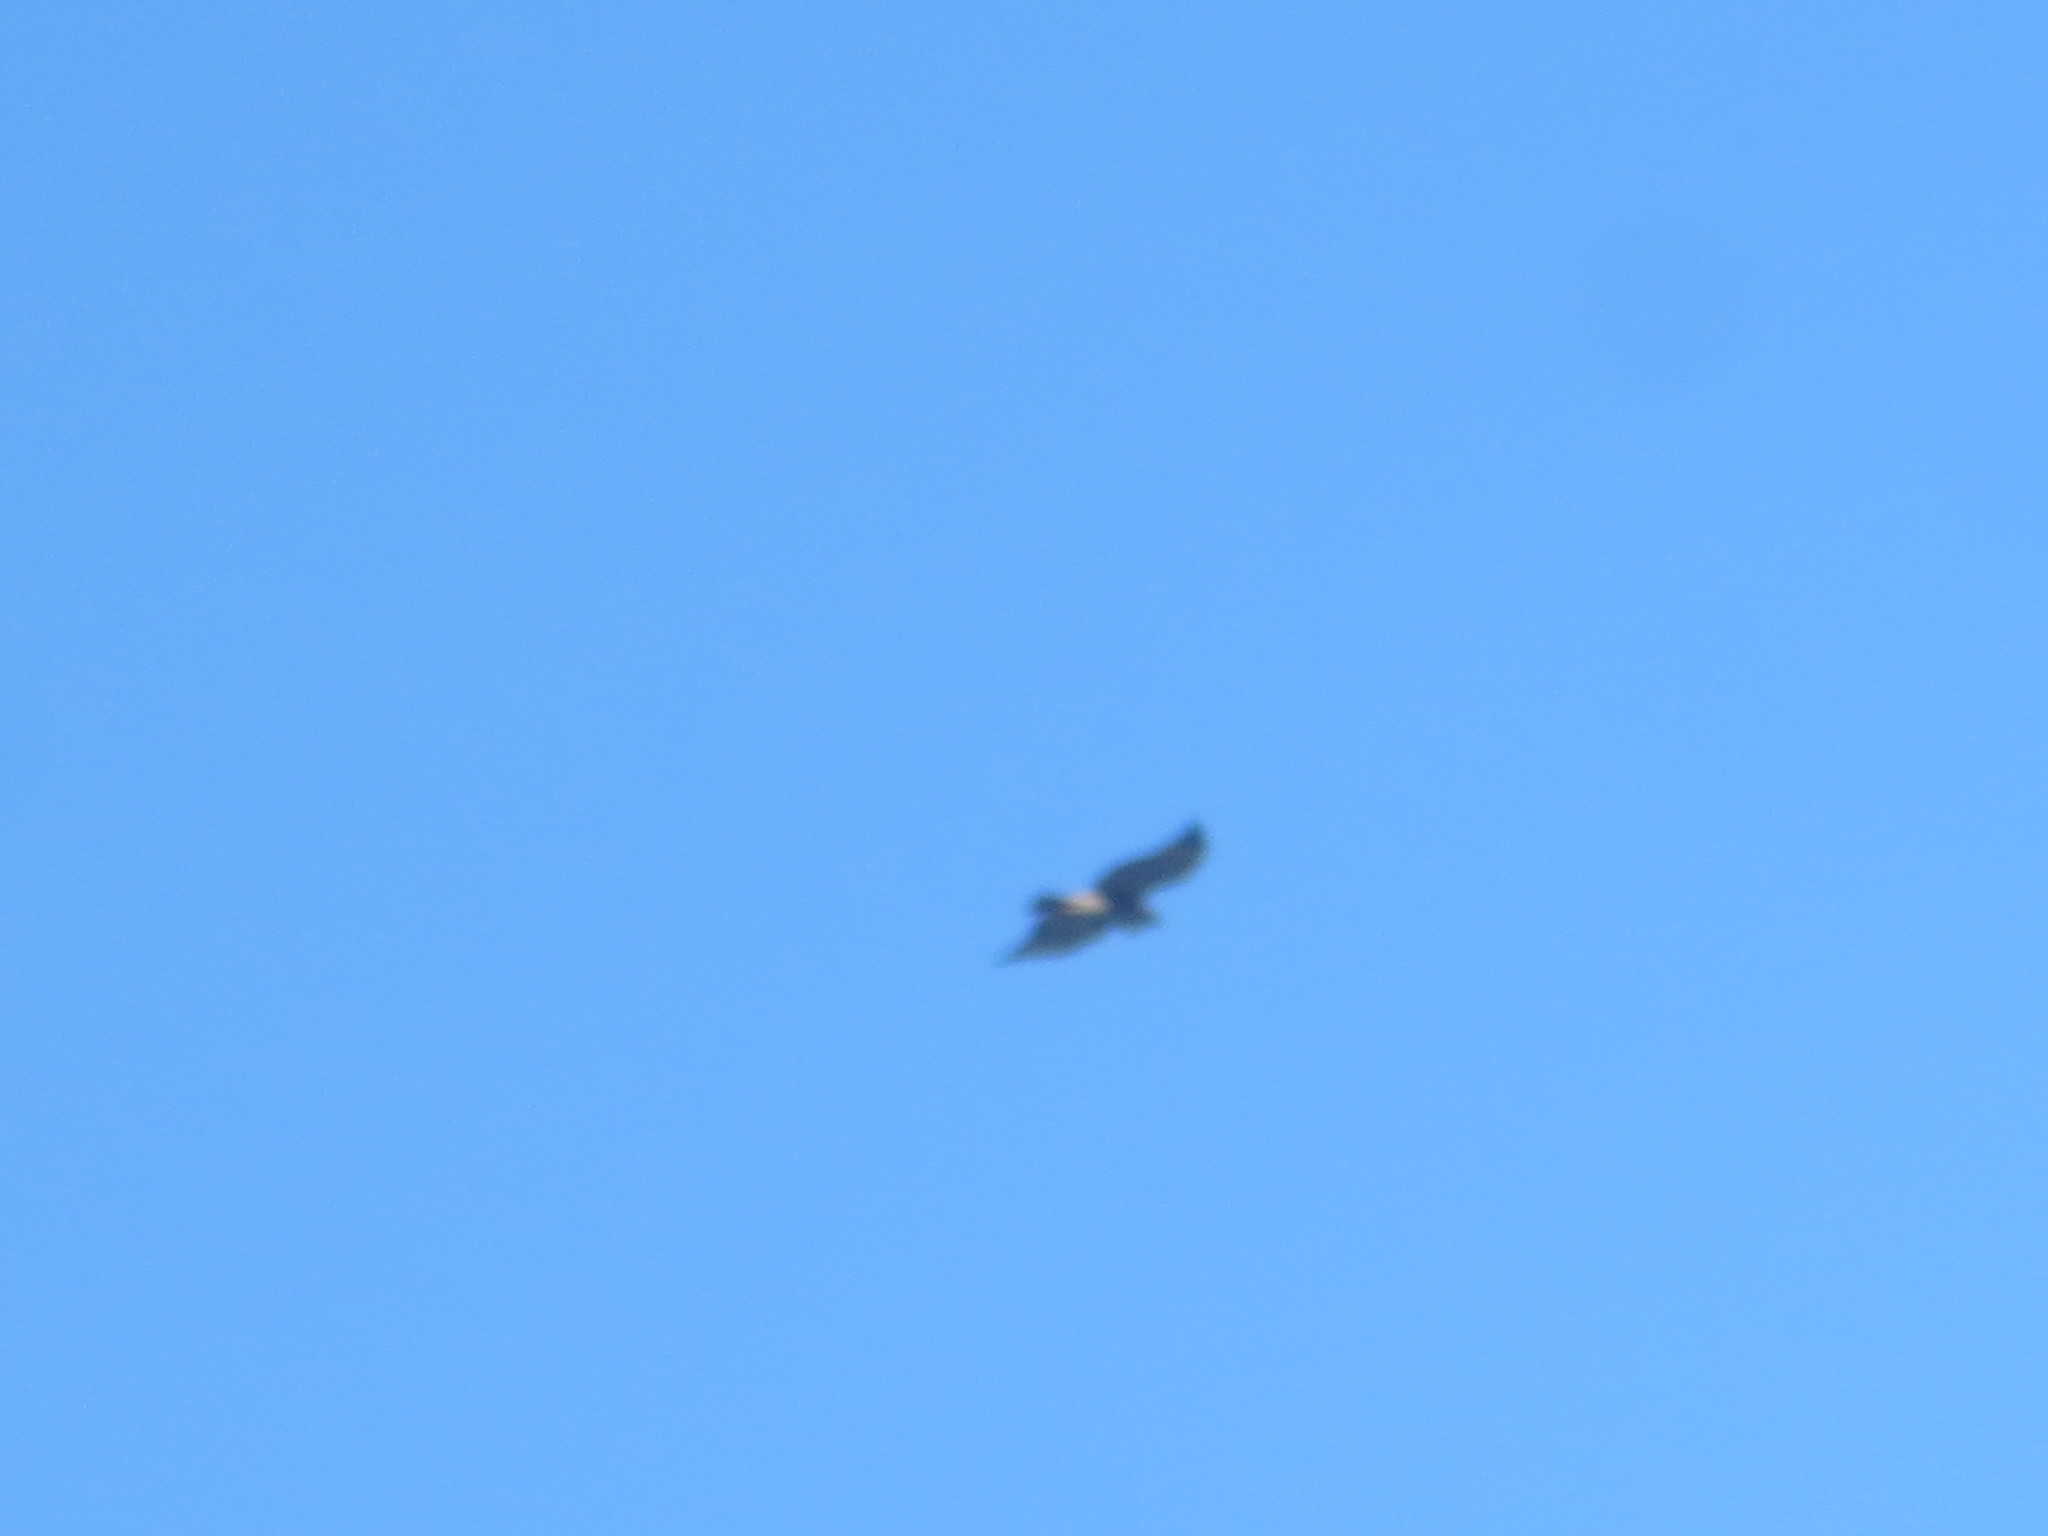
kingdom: Animalia
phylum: Chordata
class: Aves
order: Accipitriformes
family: Accipitridae
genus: Buteo
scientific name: Buteo jamaicensis
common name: Red-tailed hawk
